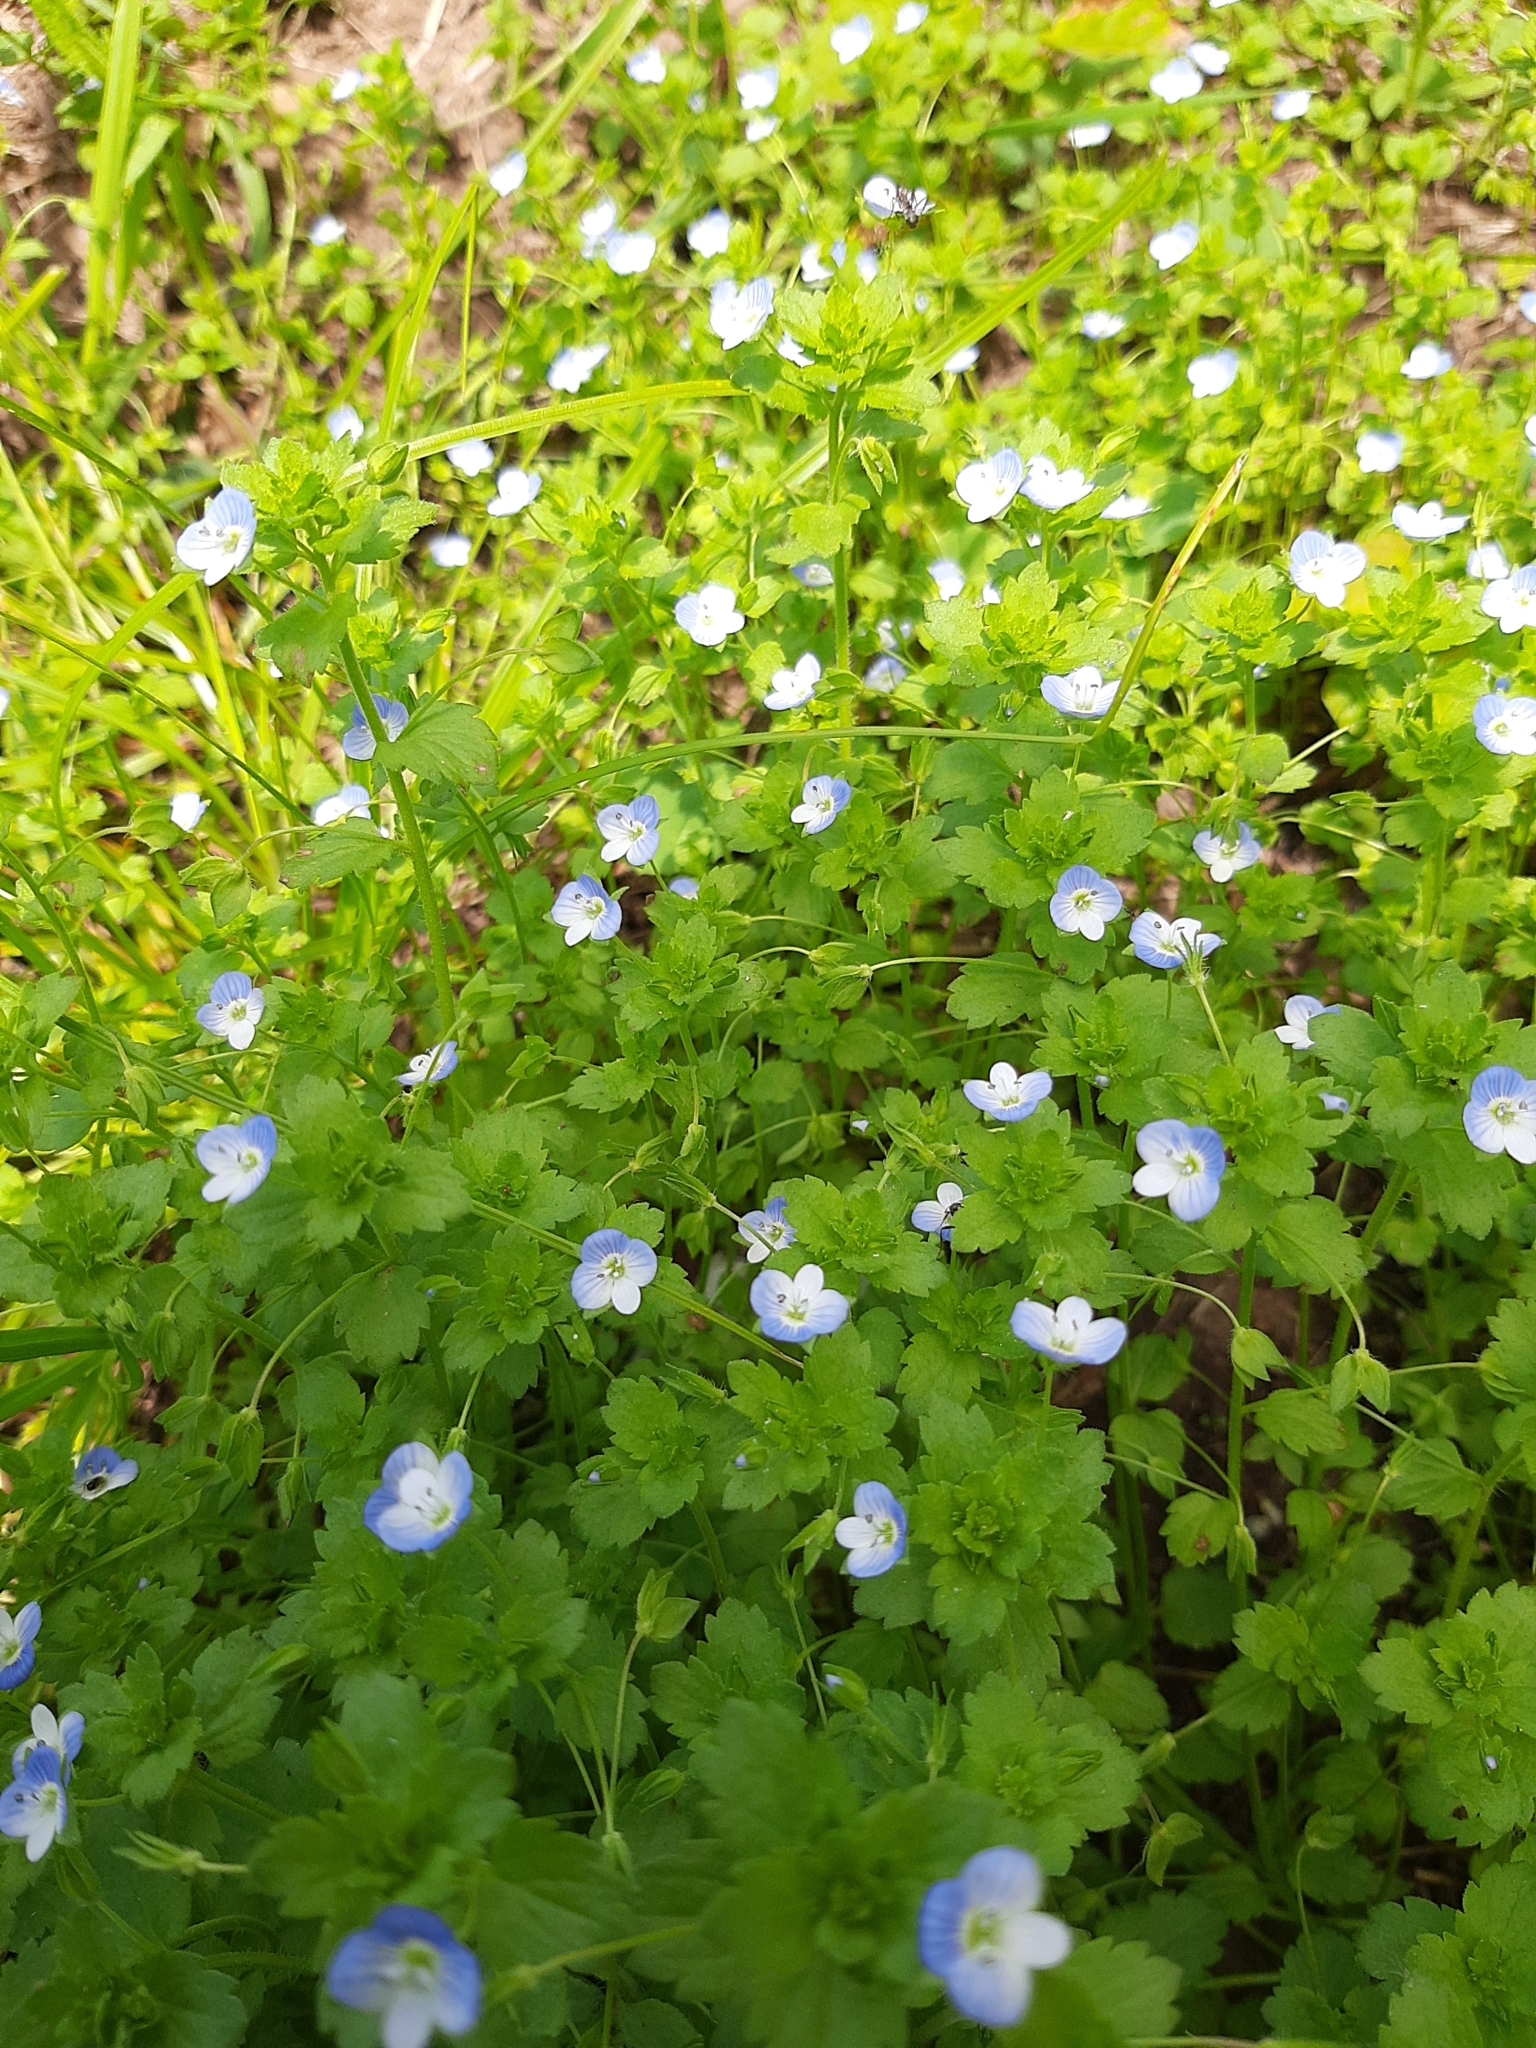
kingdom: Plantae
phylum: Tracheophyta
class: Magnoliopsida
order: Lamiales
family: Plantaginaceae
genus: Veronica
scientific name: Veronica persica
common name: Common field-speedwell
